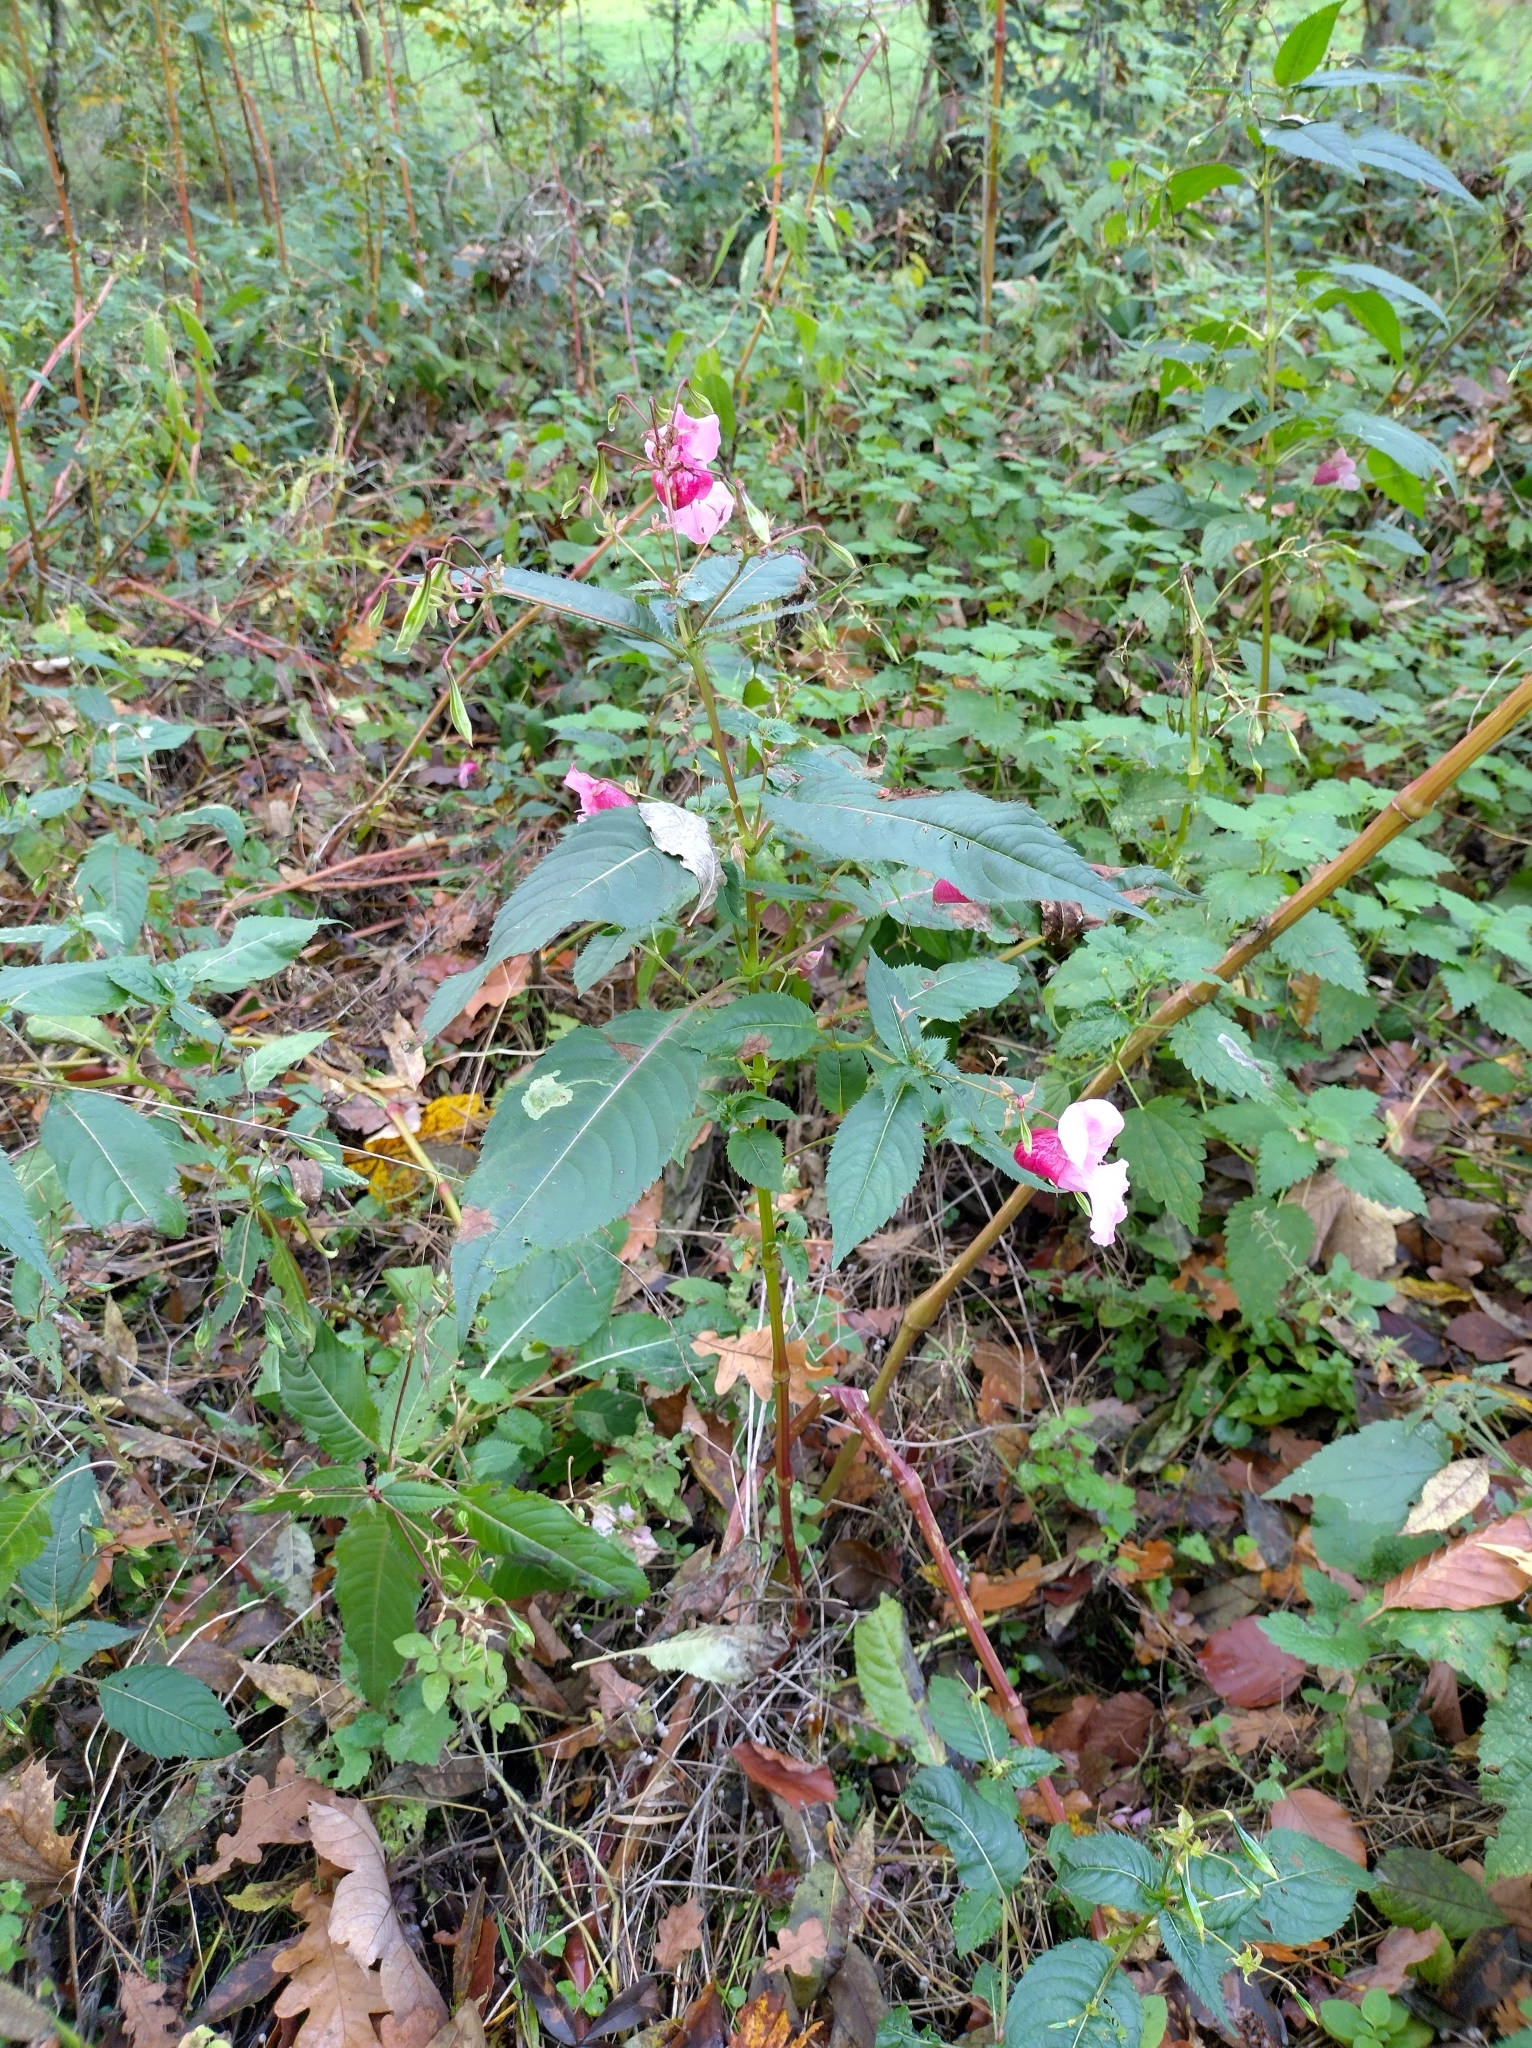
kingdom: Plantae
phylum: Tracheophyta
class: Magnoliopsida
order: Ericales
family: Balsaminaceae
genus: Impatiens
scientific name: Impatiens glandulifera
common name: Himalayan balsam
